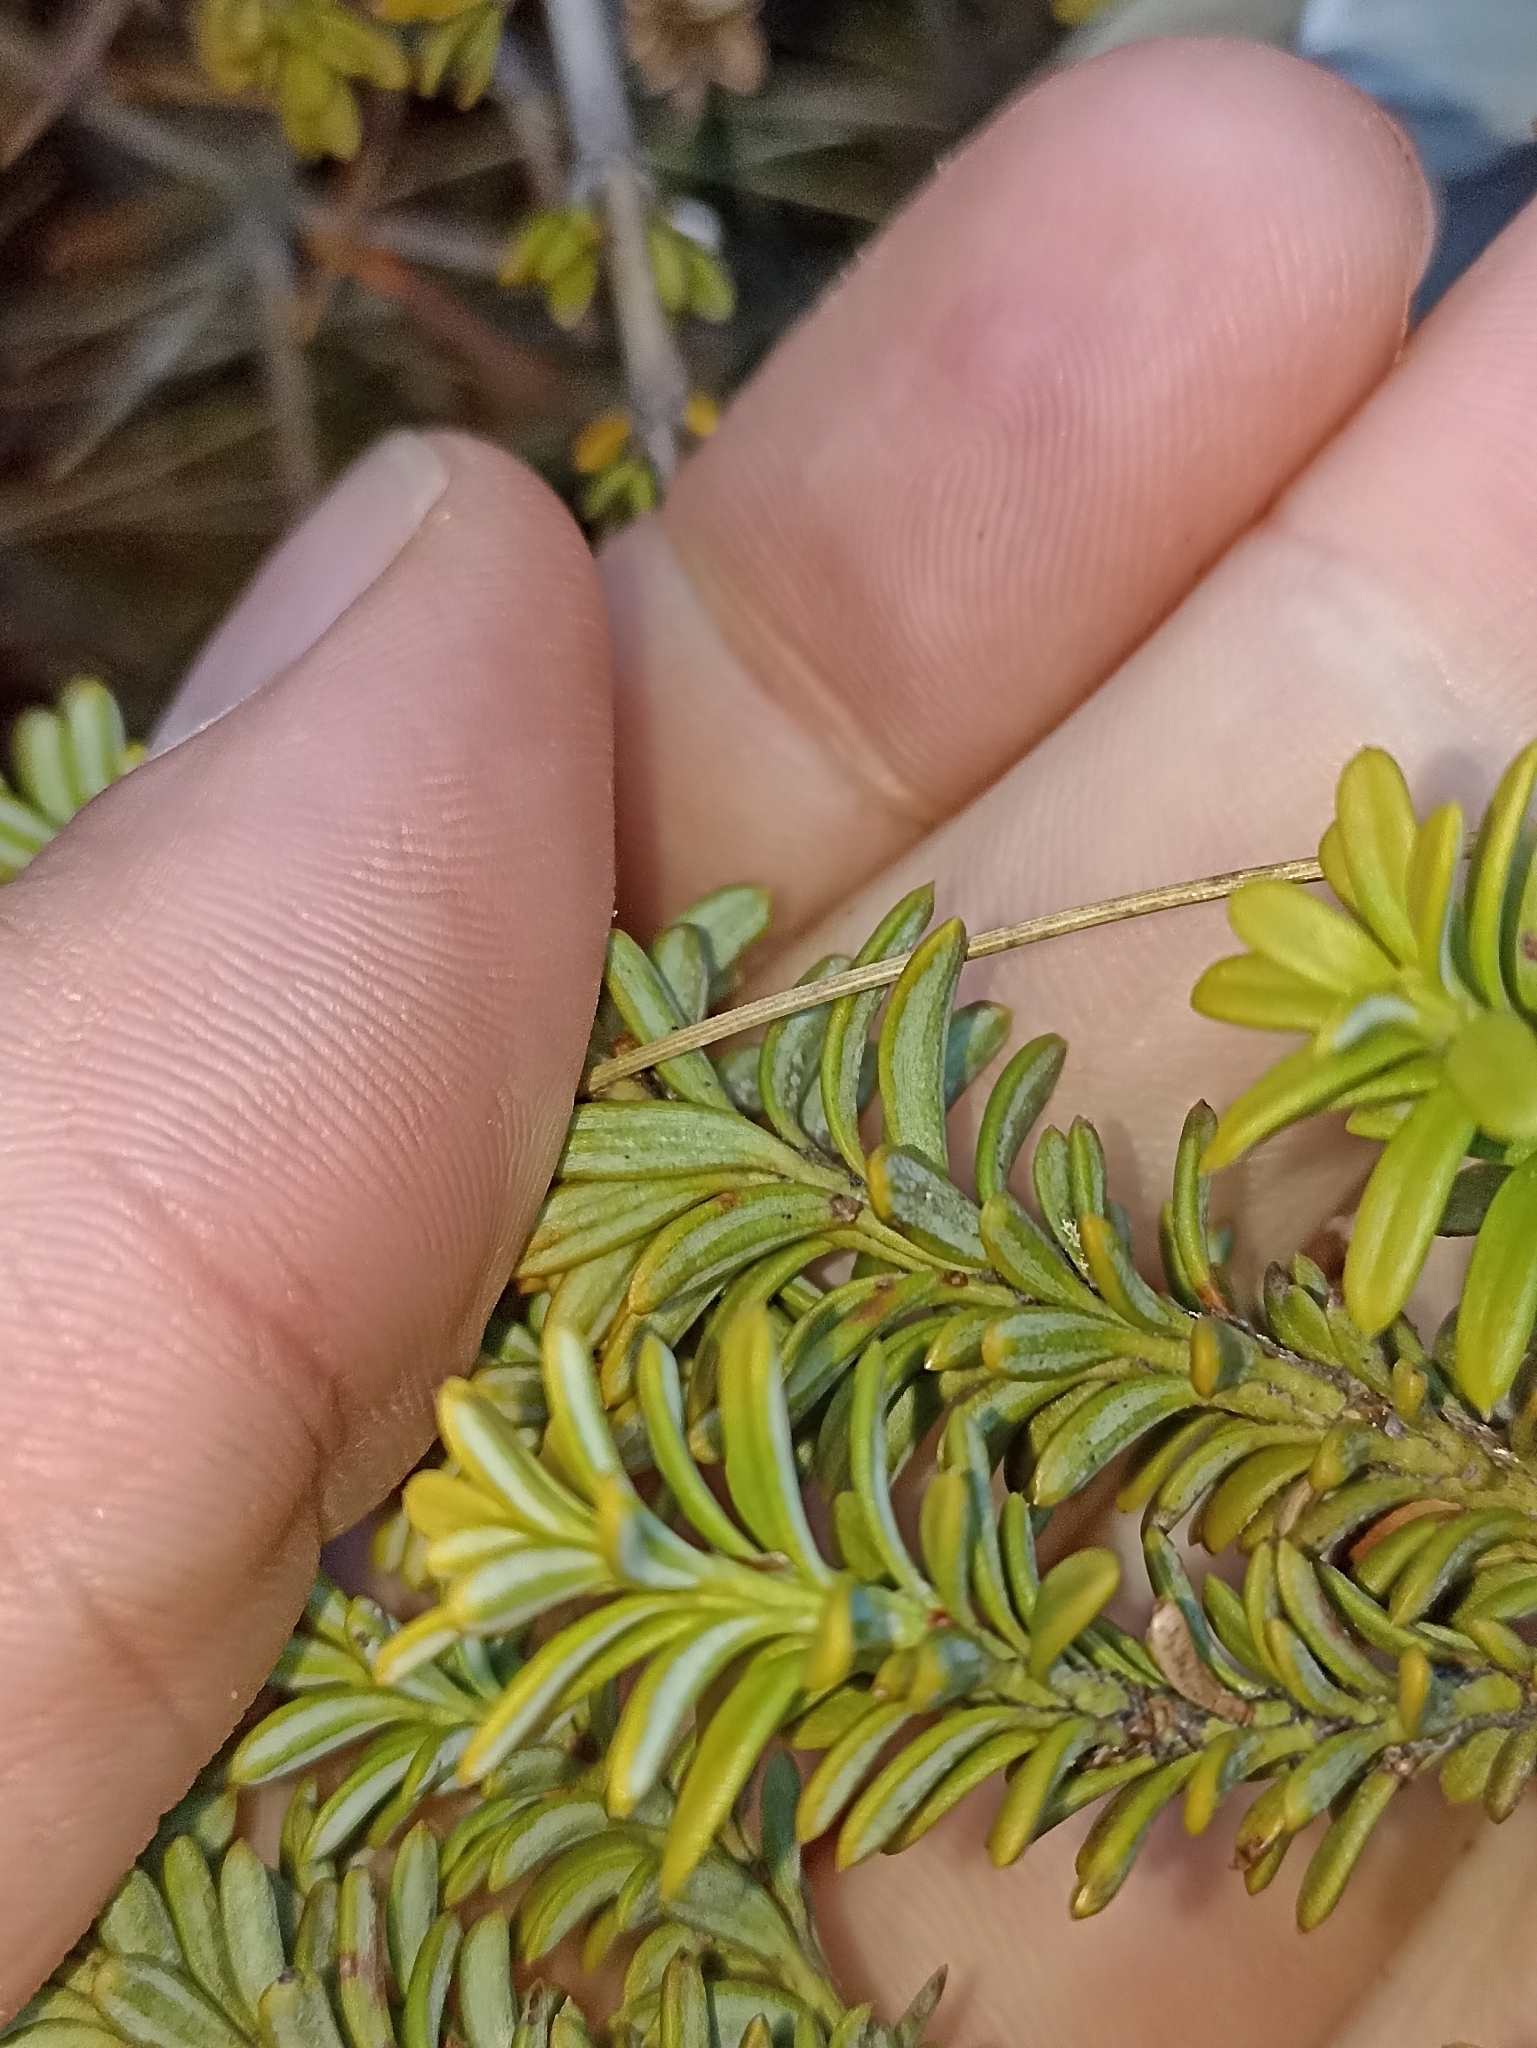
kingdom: Plantae
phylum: Tracheophyta
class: Pinopsida
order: Pinales
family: Podocarpaceae
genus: Podocarpus
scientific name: Podocarpus nivalis
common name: Alpine totara
